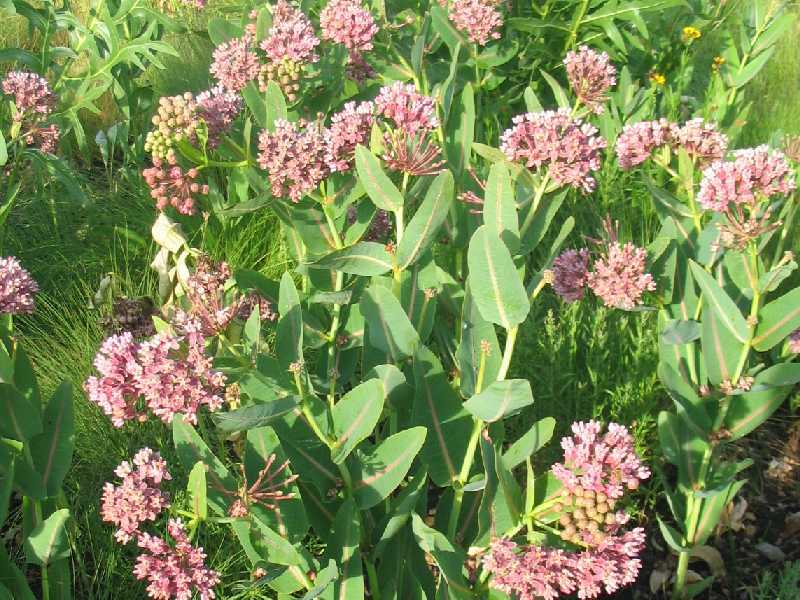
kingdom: Plantae
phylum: Tracheophyta
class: Magnoliopsida
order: Gentianales
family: Apocynaceae
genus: Asclepias
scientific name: Asclepias sullivantii
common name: Prairie milkweed
